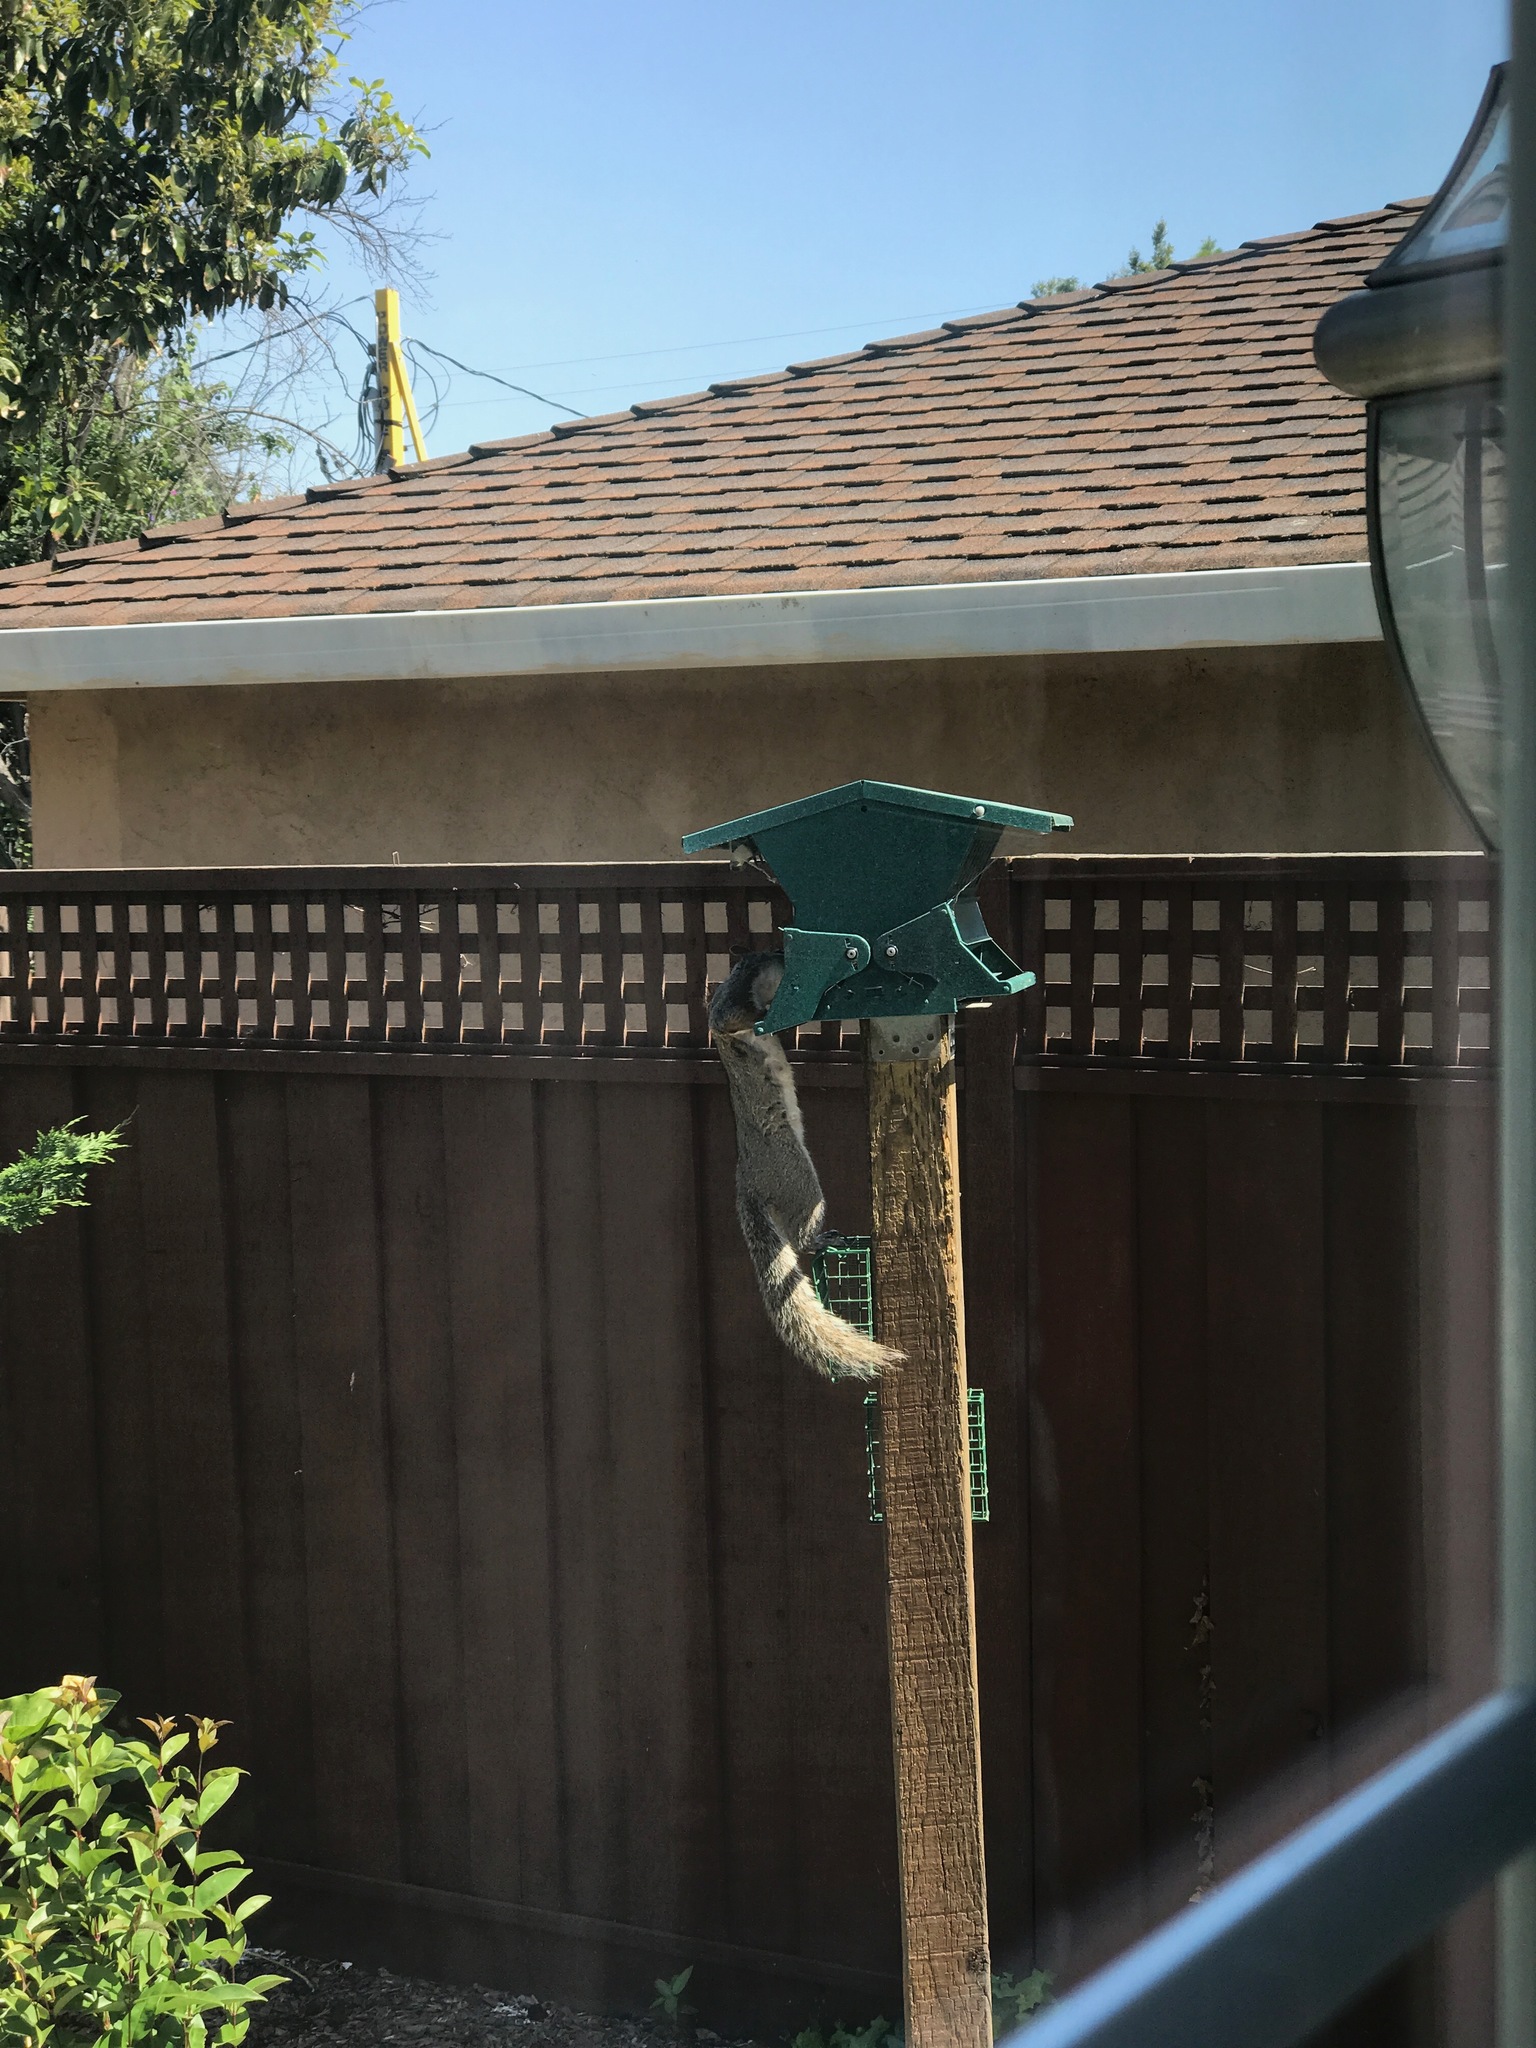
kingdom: Animalia
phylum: Chordata
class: Mammalia
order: Rodentia
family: Sciuridae
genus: Sciurus
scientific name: Sciurus carolinensis
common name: Eastern gray squirrel
